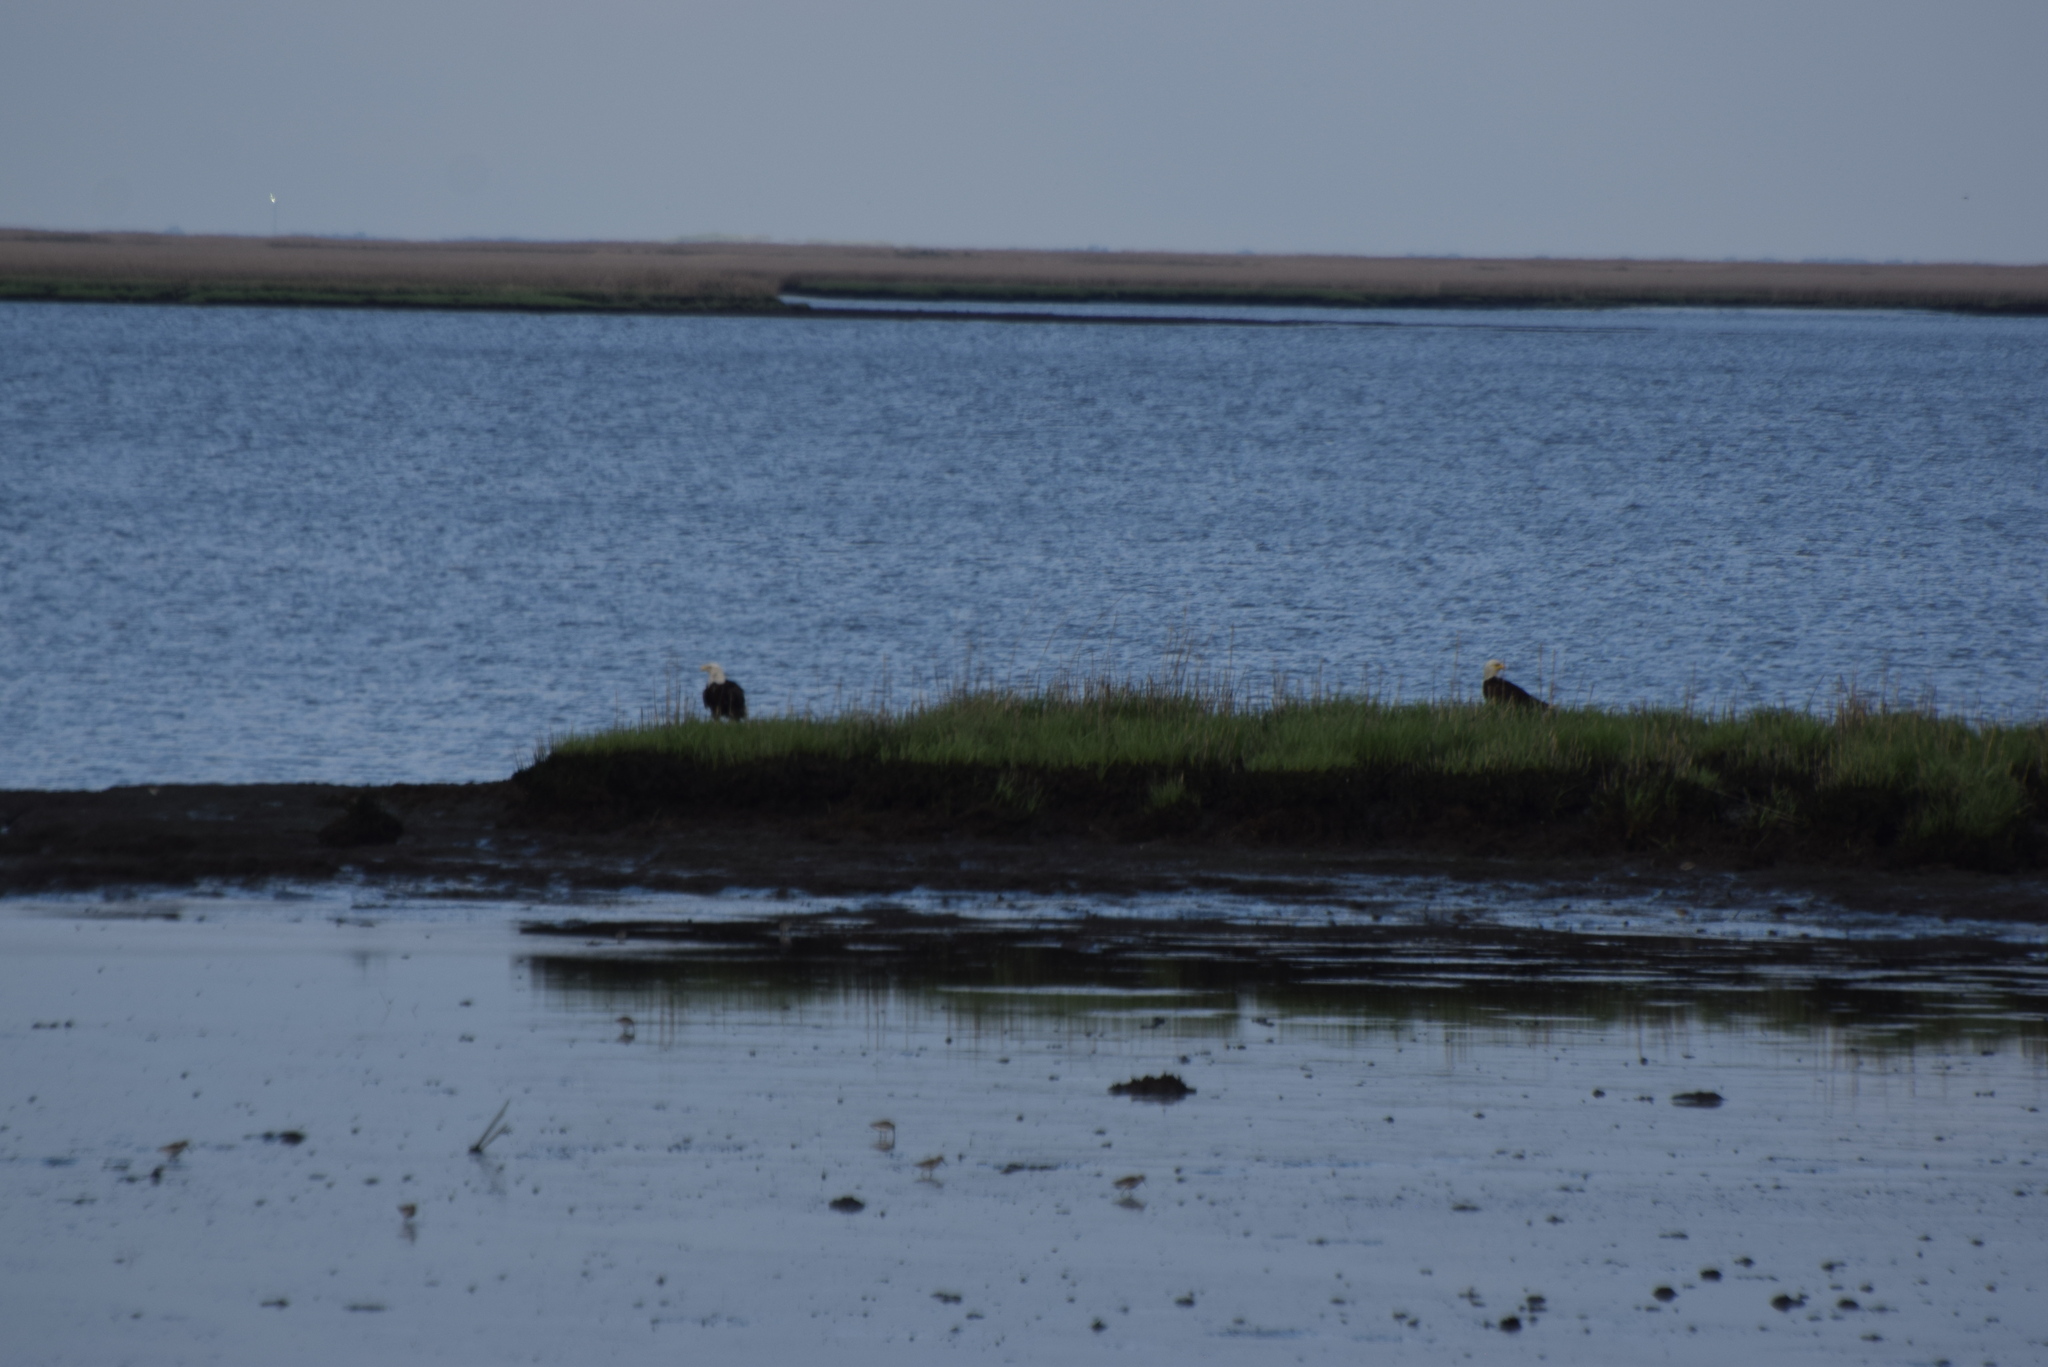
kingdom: Animalia
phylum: Chordata
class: Aves
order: Accipitriformes
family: Accipitridae
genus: Haliaeetus
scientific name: Haliaeetus leucocephalus
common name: Bald eagle
